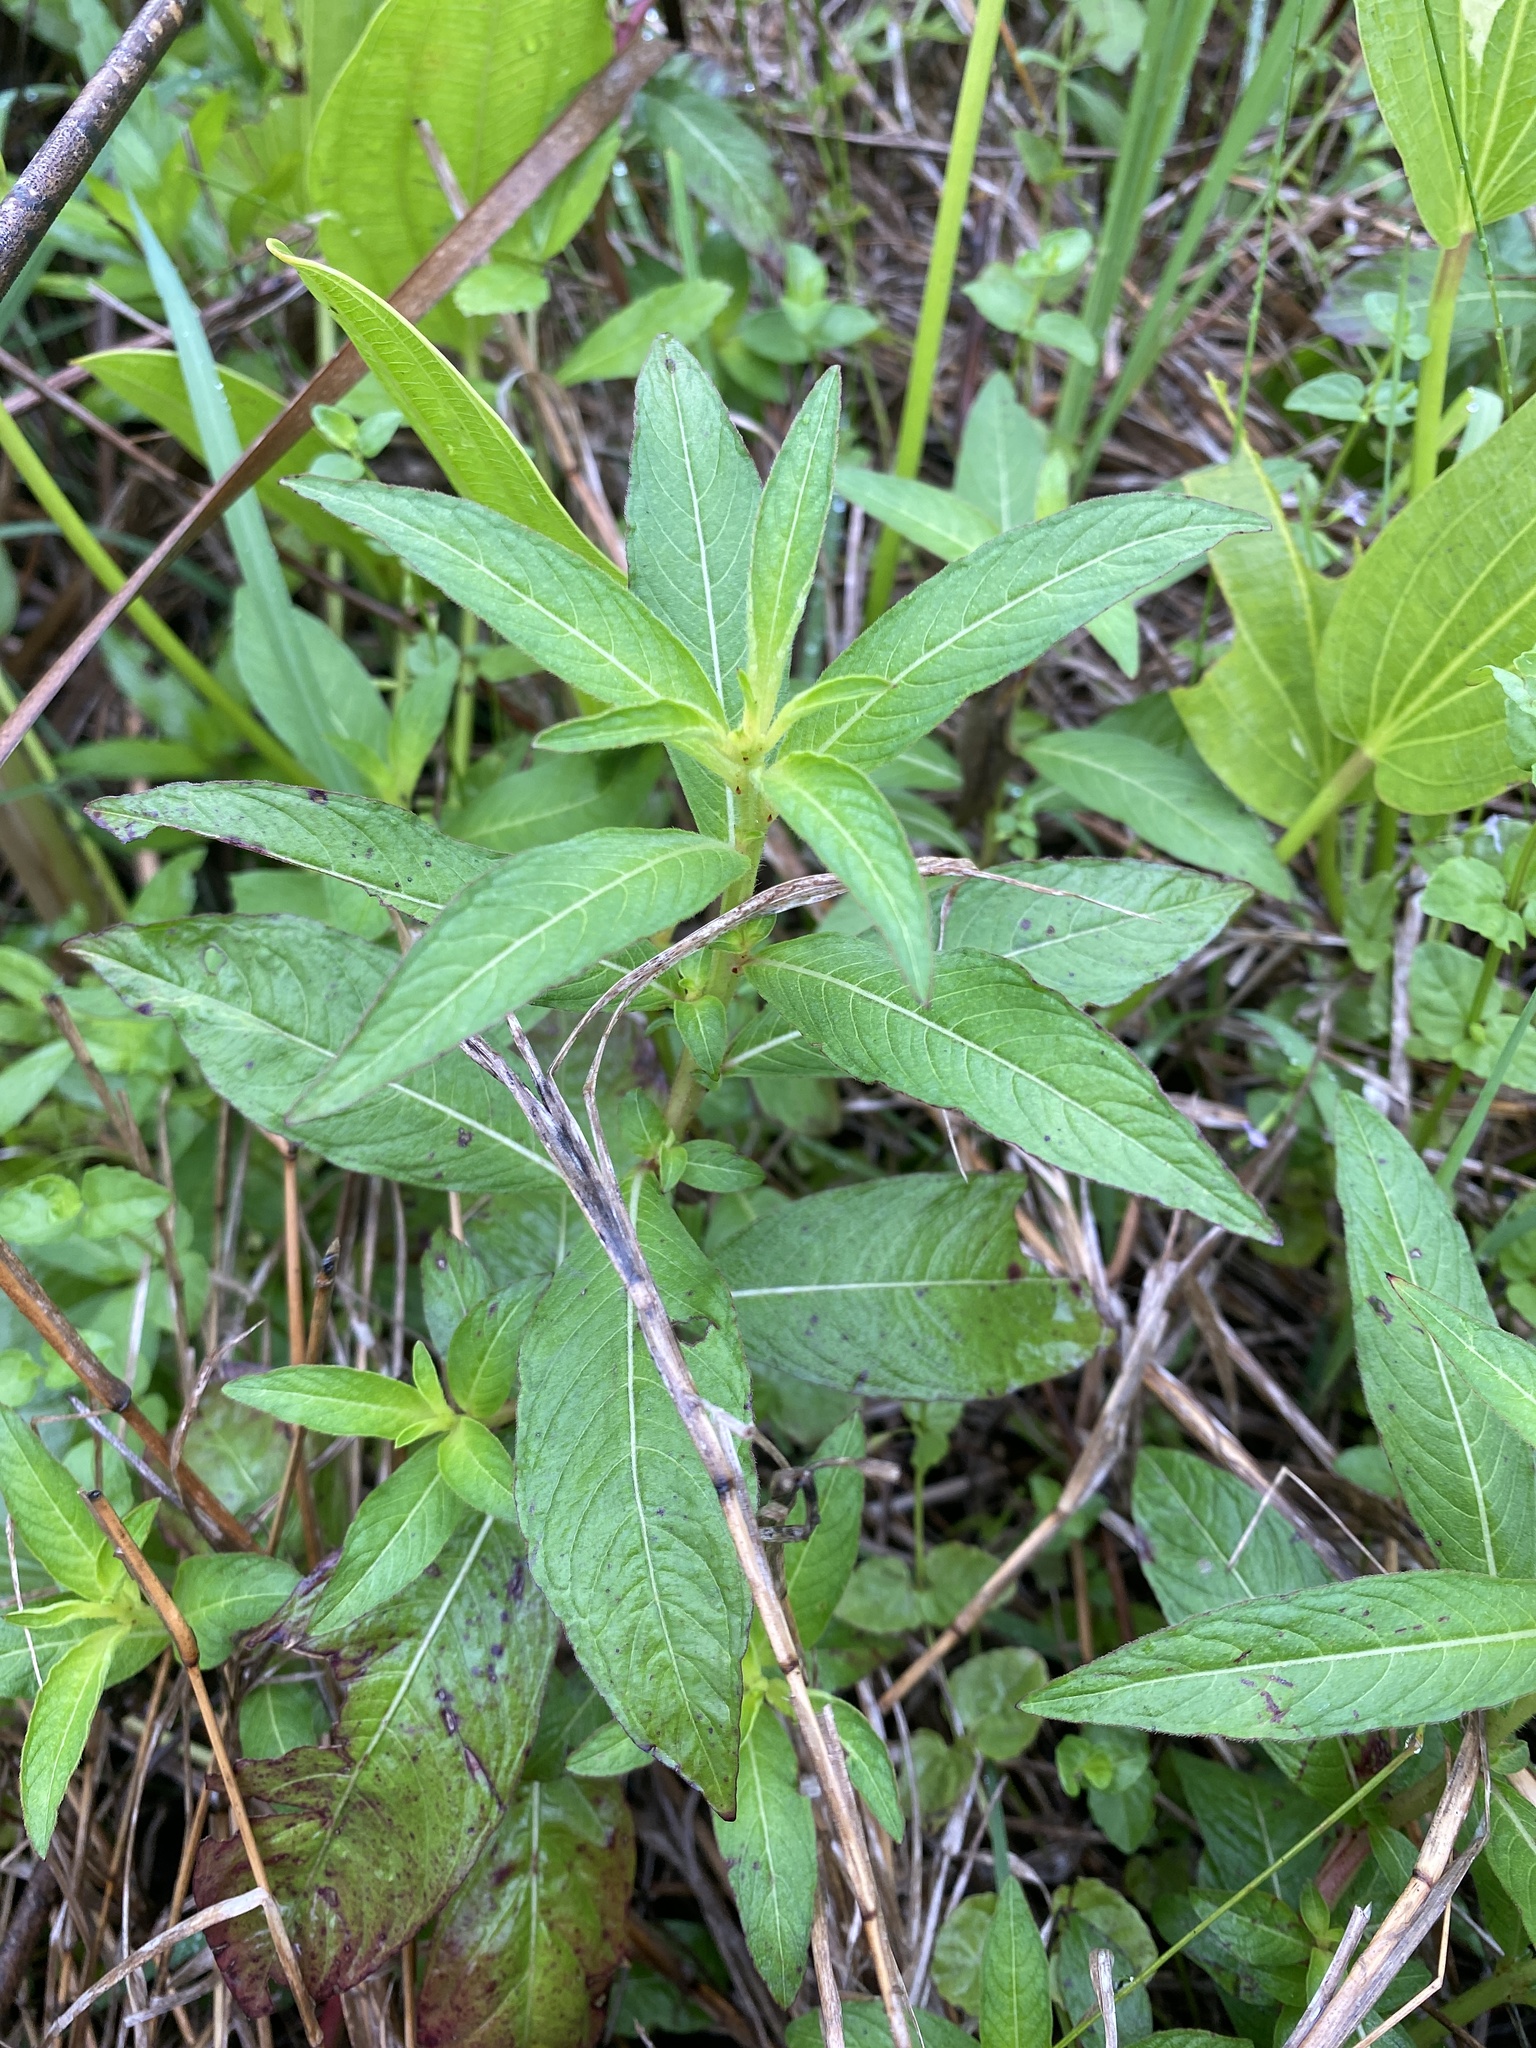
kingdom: Plantae
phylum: Tracheophyta
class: Magnoliopsida
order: Myrtales
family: Onagraceae
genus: Ludwigia
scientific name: Ludwigia octovalvis
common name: Water-primrose
